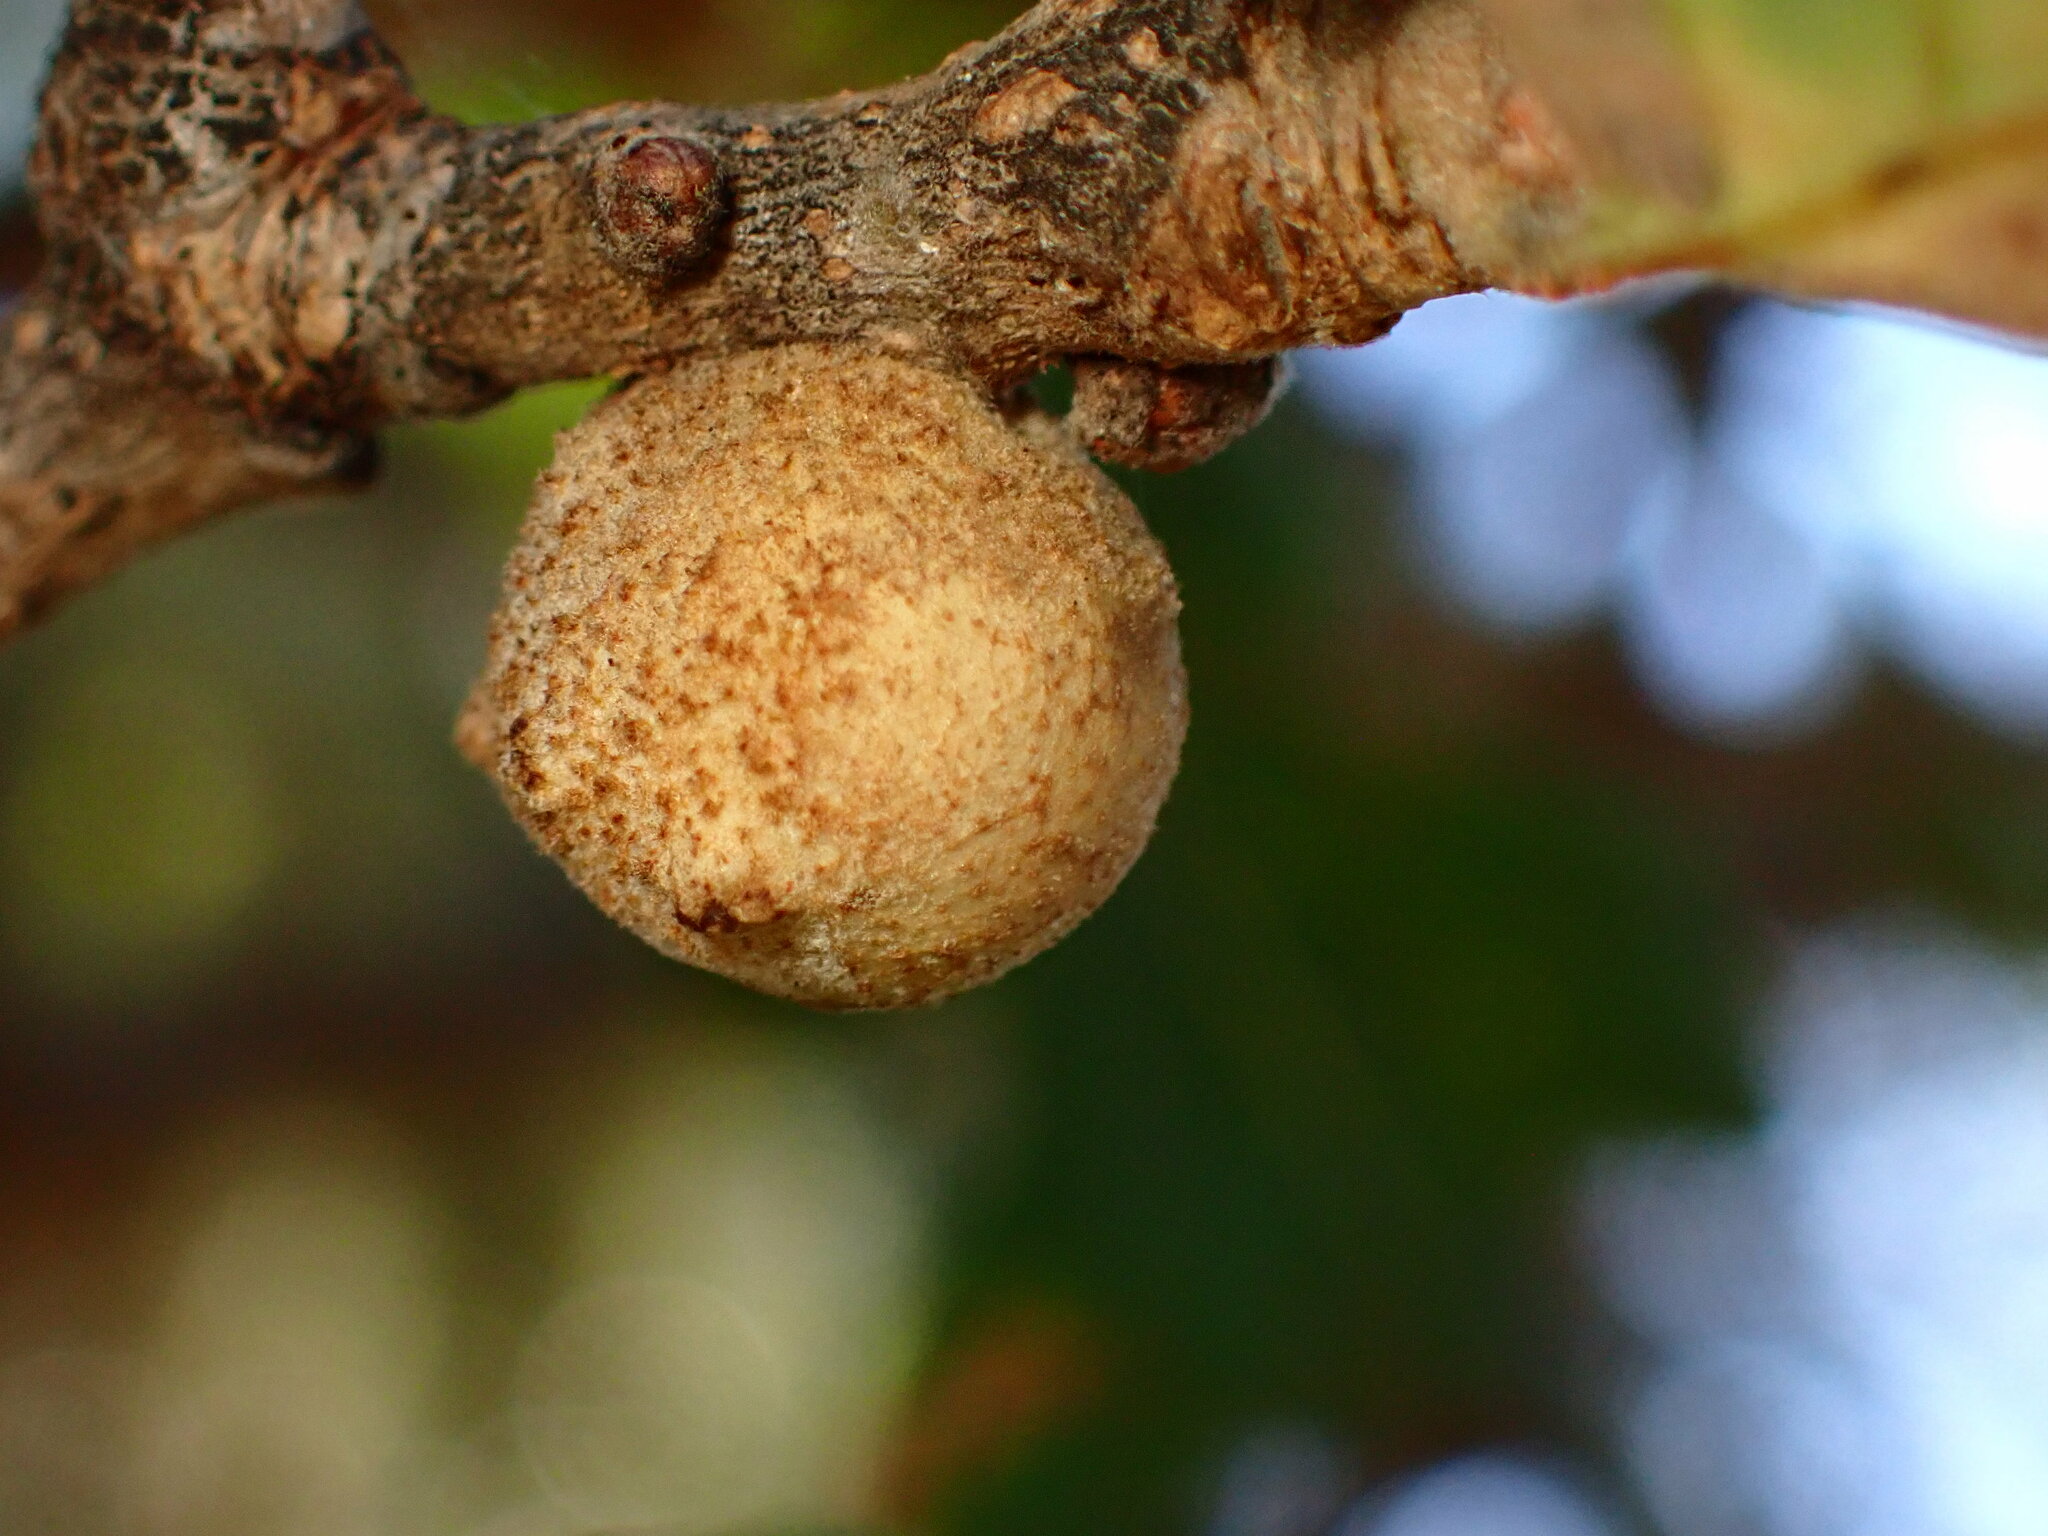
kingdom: Animalia
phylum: Arthropoda
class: Insecta
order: Hymenoptera
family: Cynipidae
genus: Burnettweldia
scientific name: Burnettweldia
